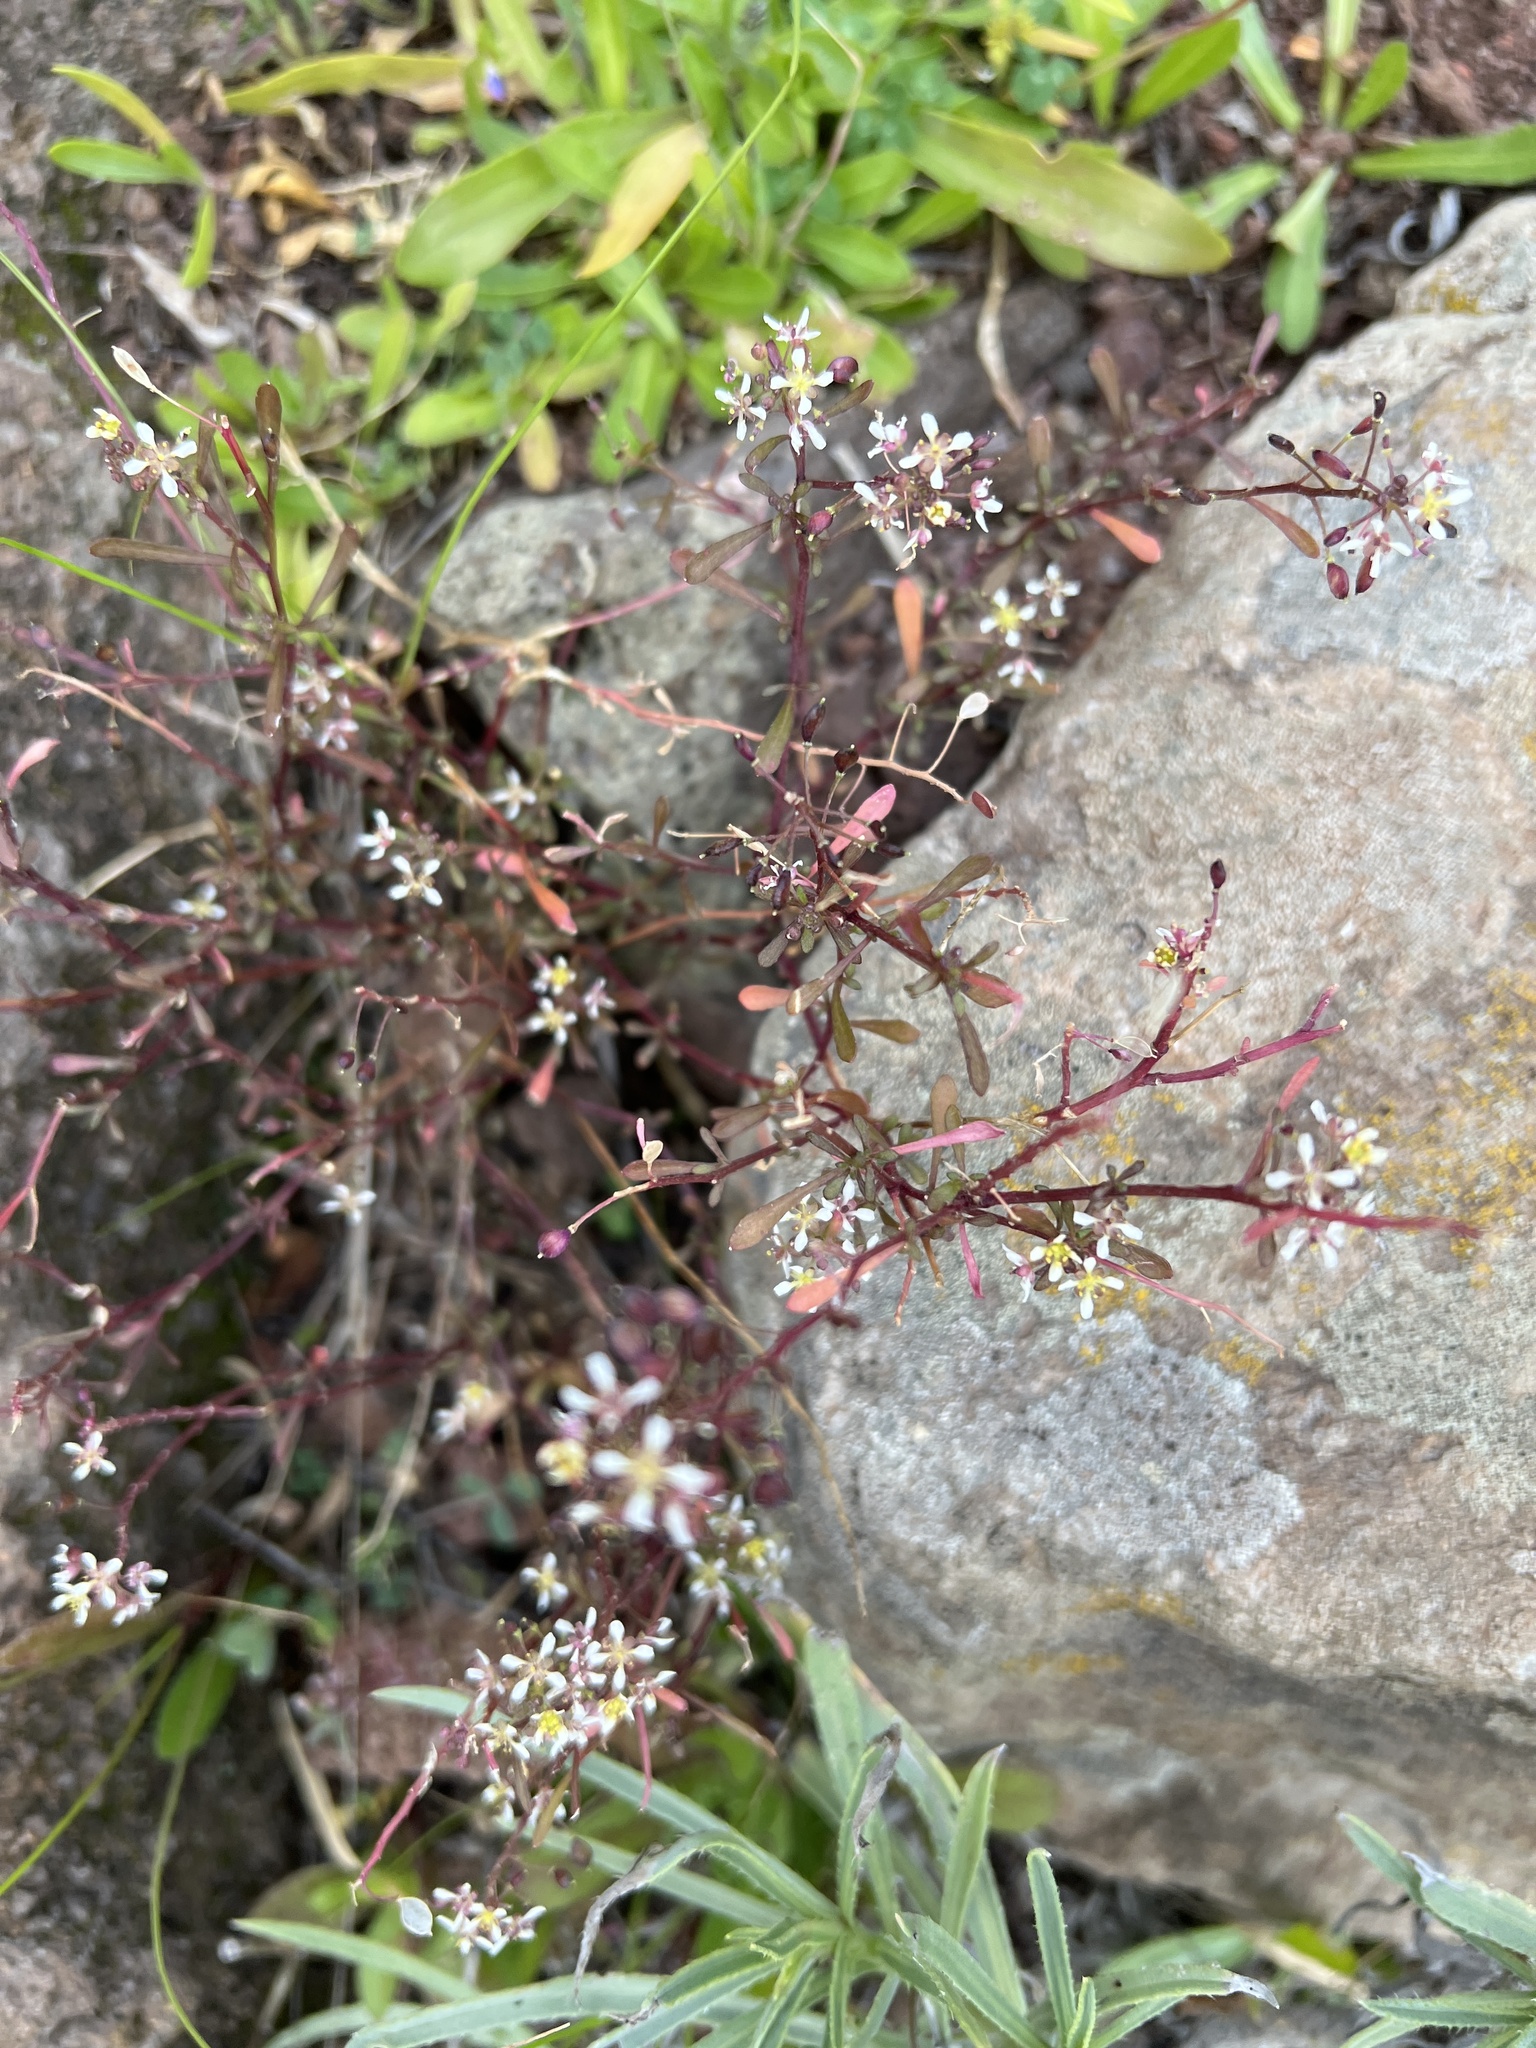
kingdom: Plantae
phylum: Tracheophyta
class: Magnoliopsida
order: Brassicales
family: Brassicaceae
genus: Lobularia
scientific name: Lobularia canariensis
